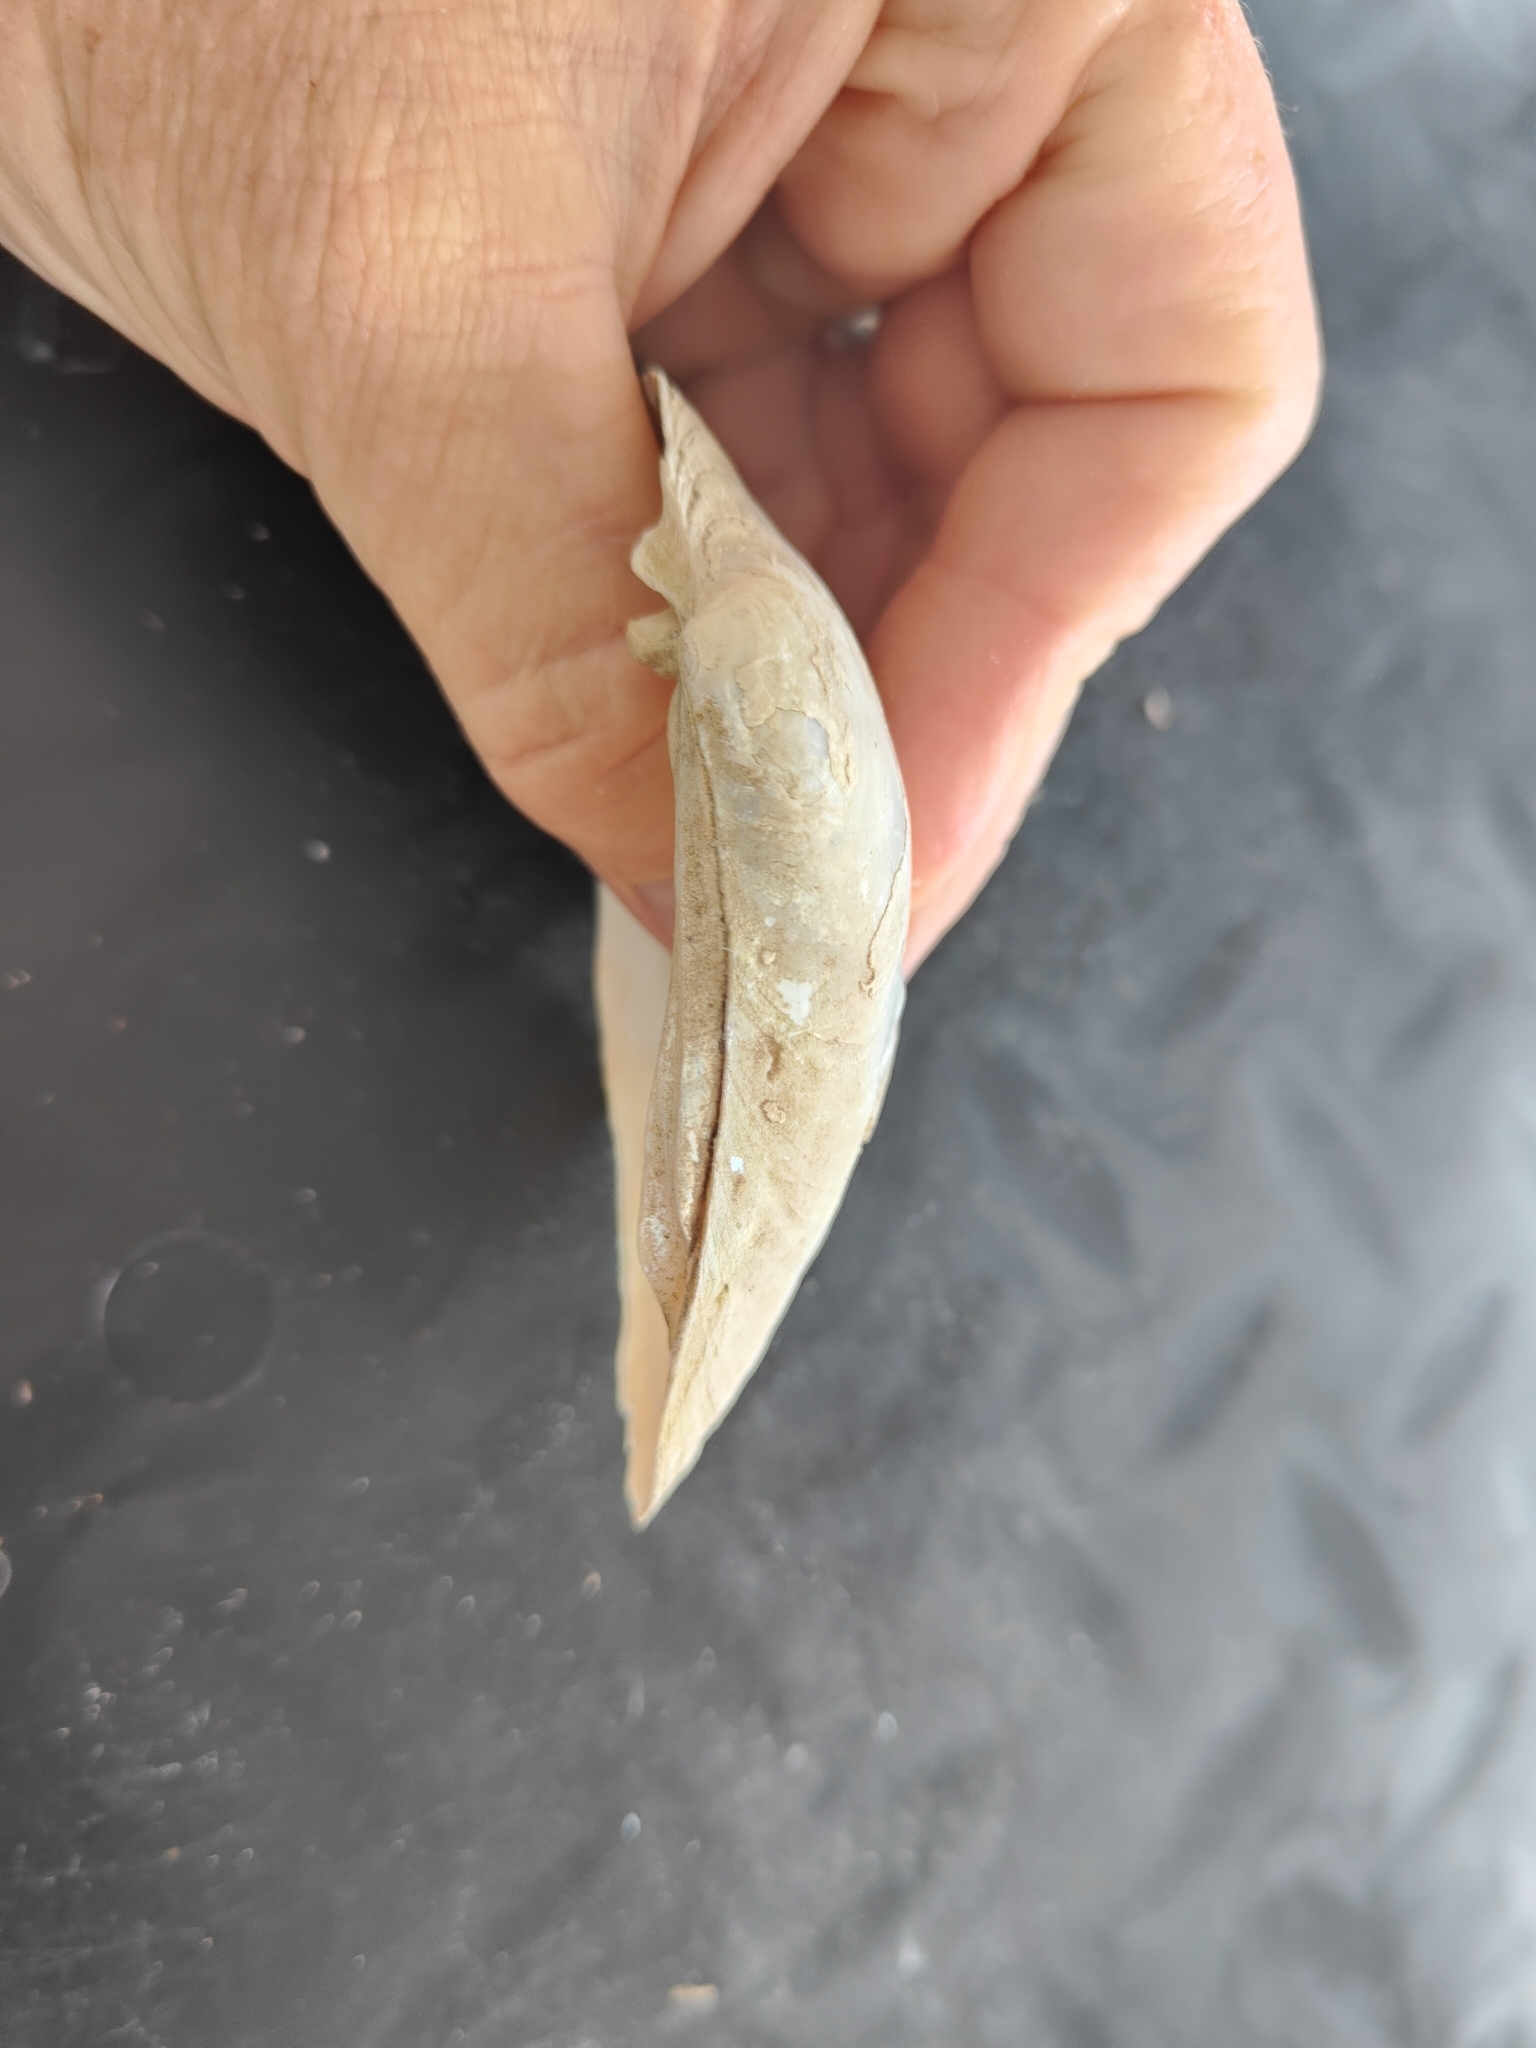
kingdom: Animalia
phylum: Mollusca
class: Bivalvia
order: Unionida
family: Unionidae
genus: Lampsilis
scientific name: Lampsilis cardium
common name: Plain pocketbook
